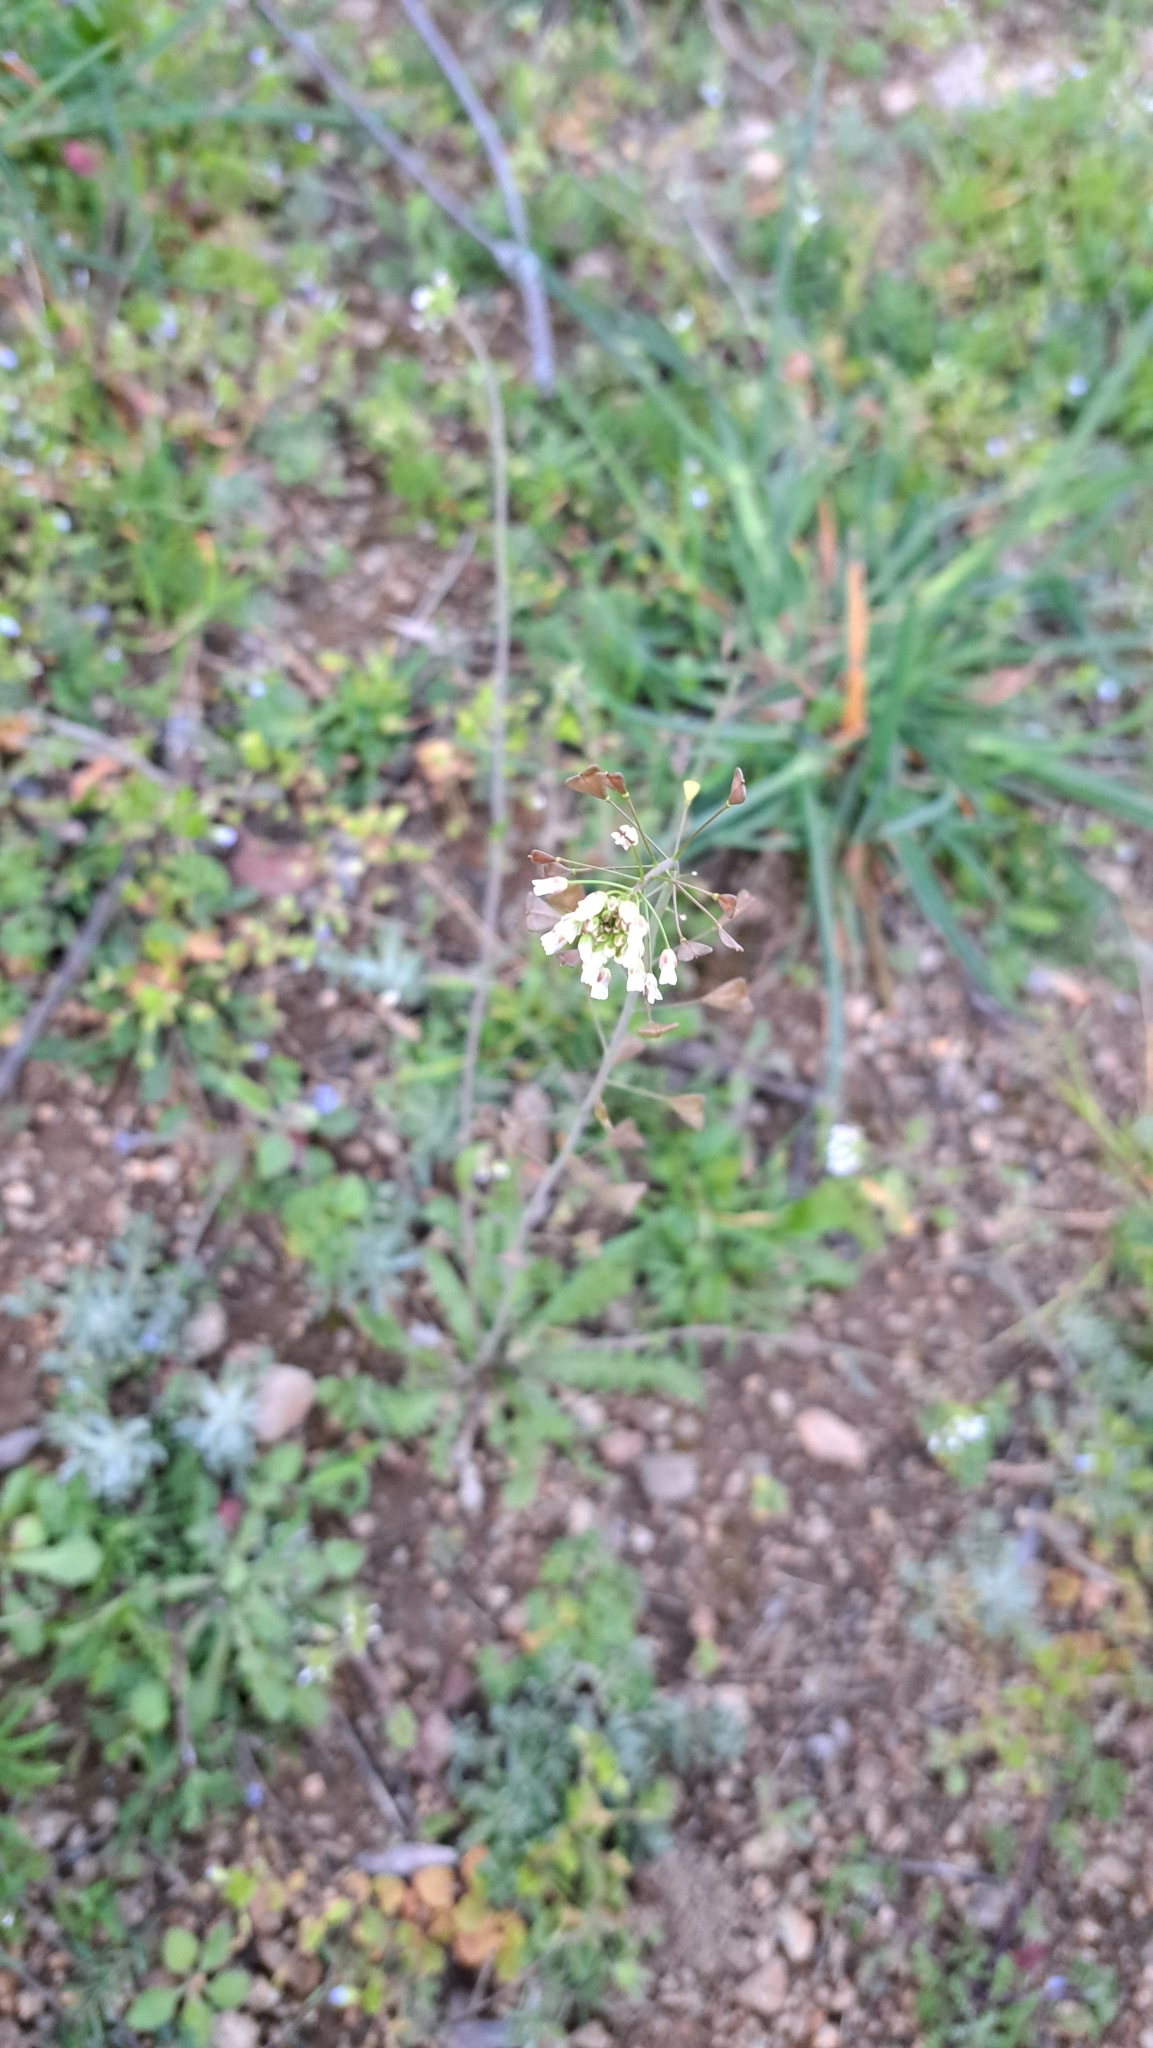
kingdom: Plantae
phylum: Tracheophyta
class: Magnoliopsida
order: Brassicales
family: Brassicaceae
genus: Capsella
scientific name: Capsella bursa-pastoris
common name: Shepherd's purse
